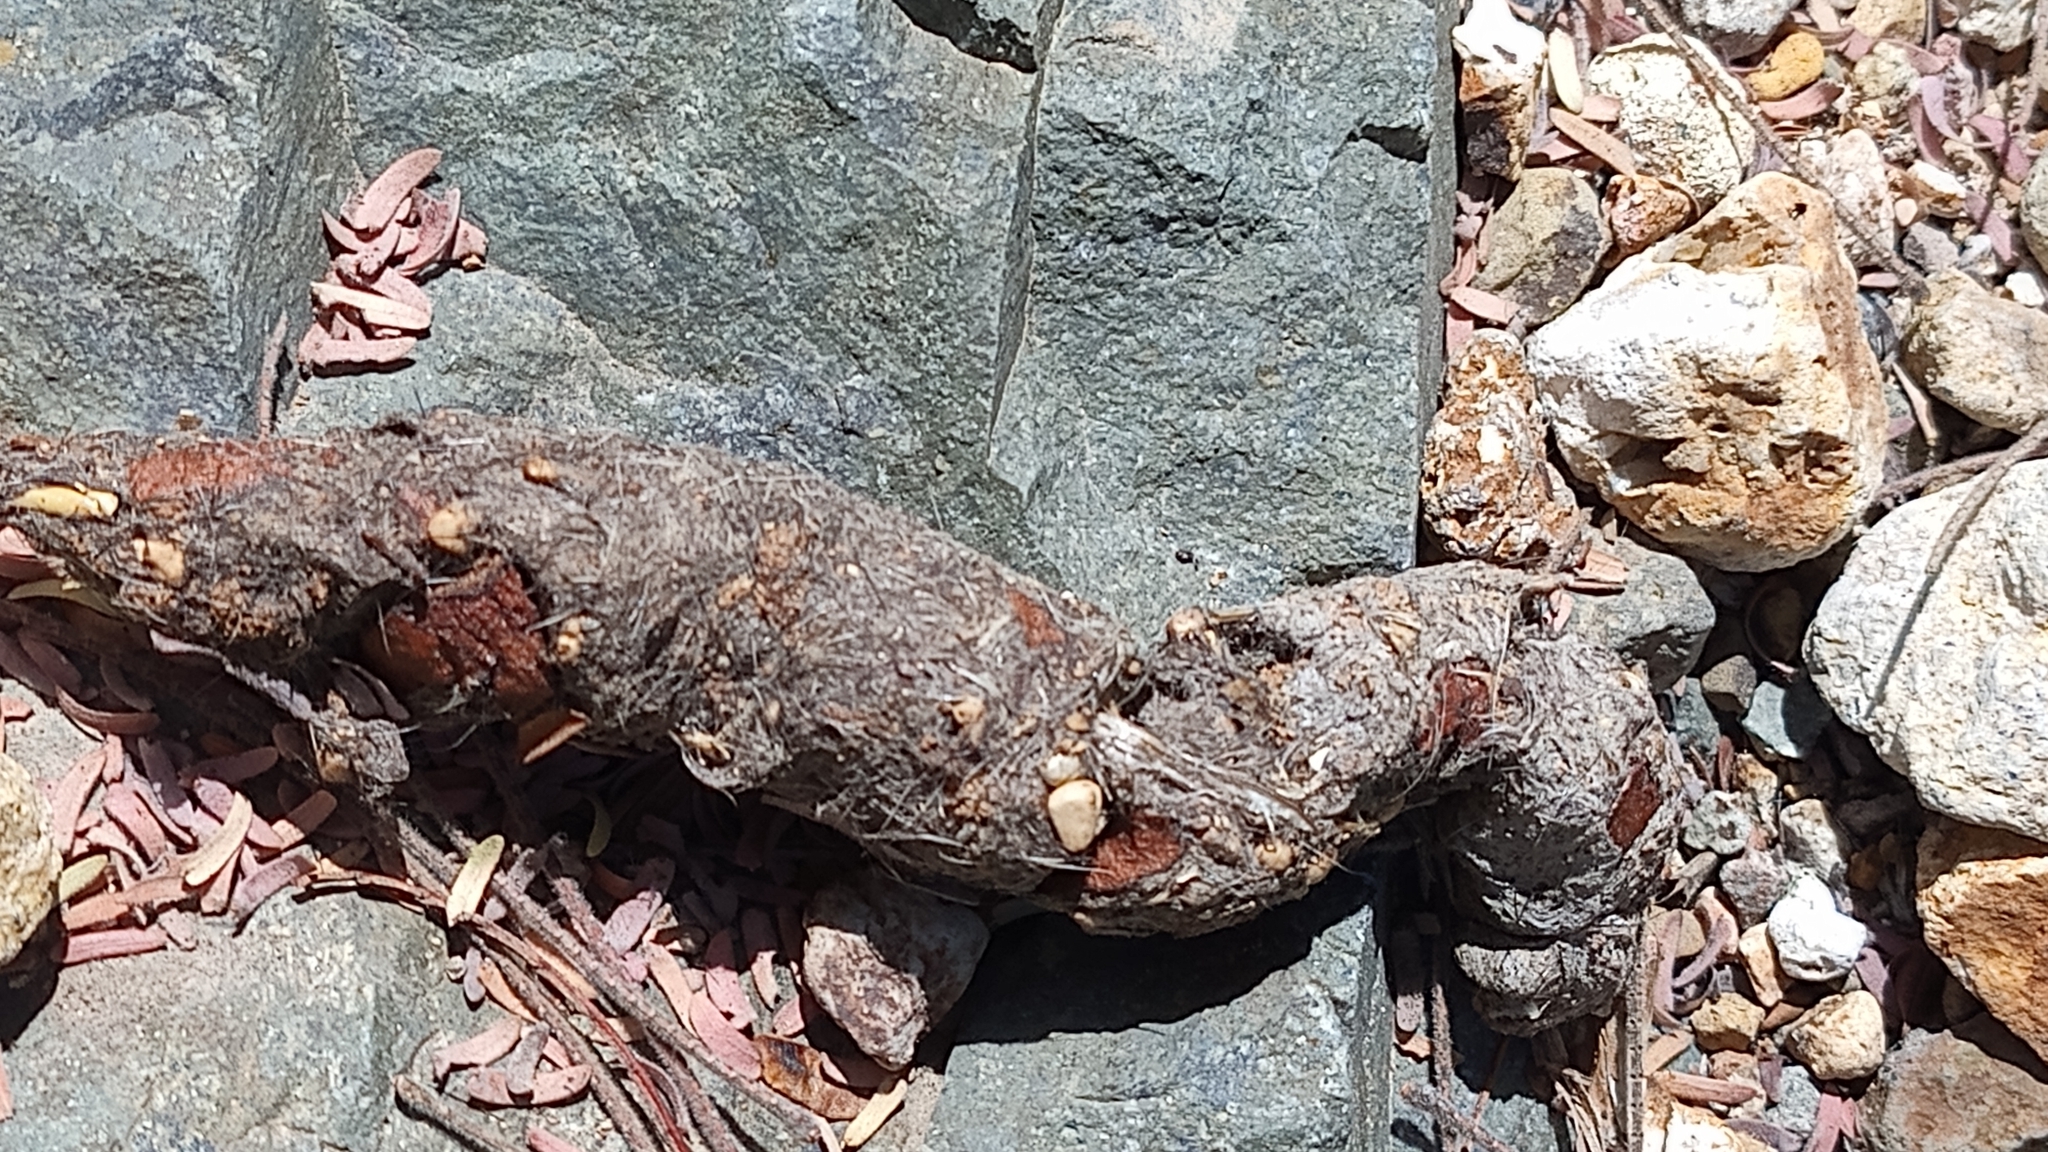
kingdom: Animalia
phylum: Chordata
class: Mammalia
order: Carnivora
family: Canidae
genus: Urocyon
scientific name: Urocyon cinereoargenteus
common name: Gray fox
